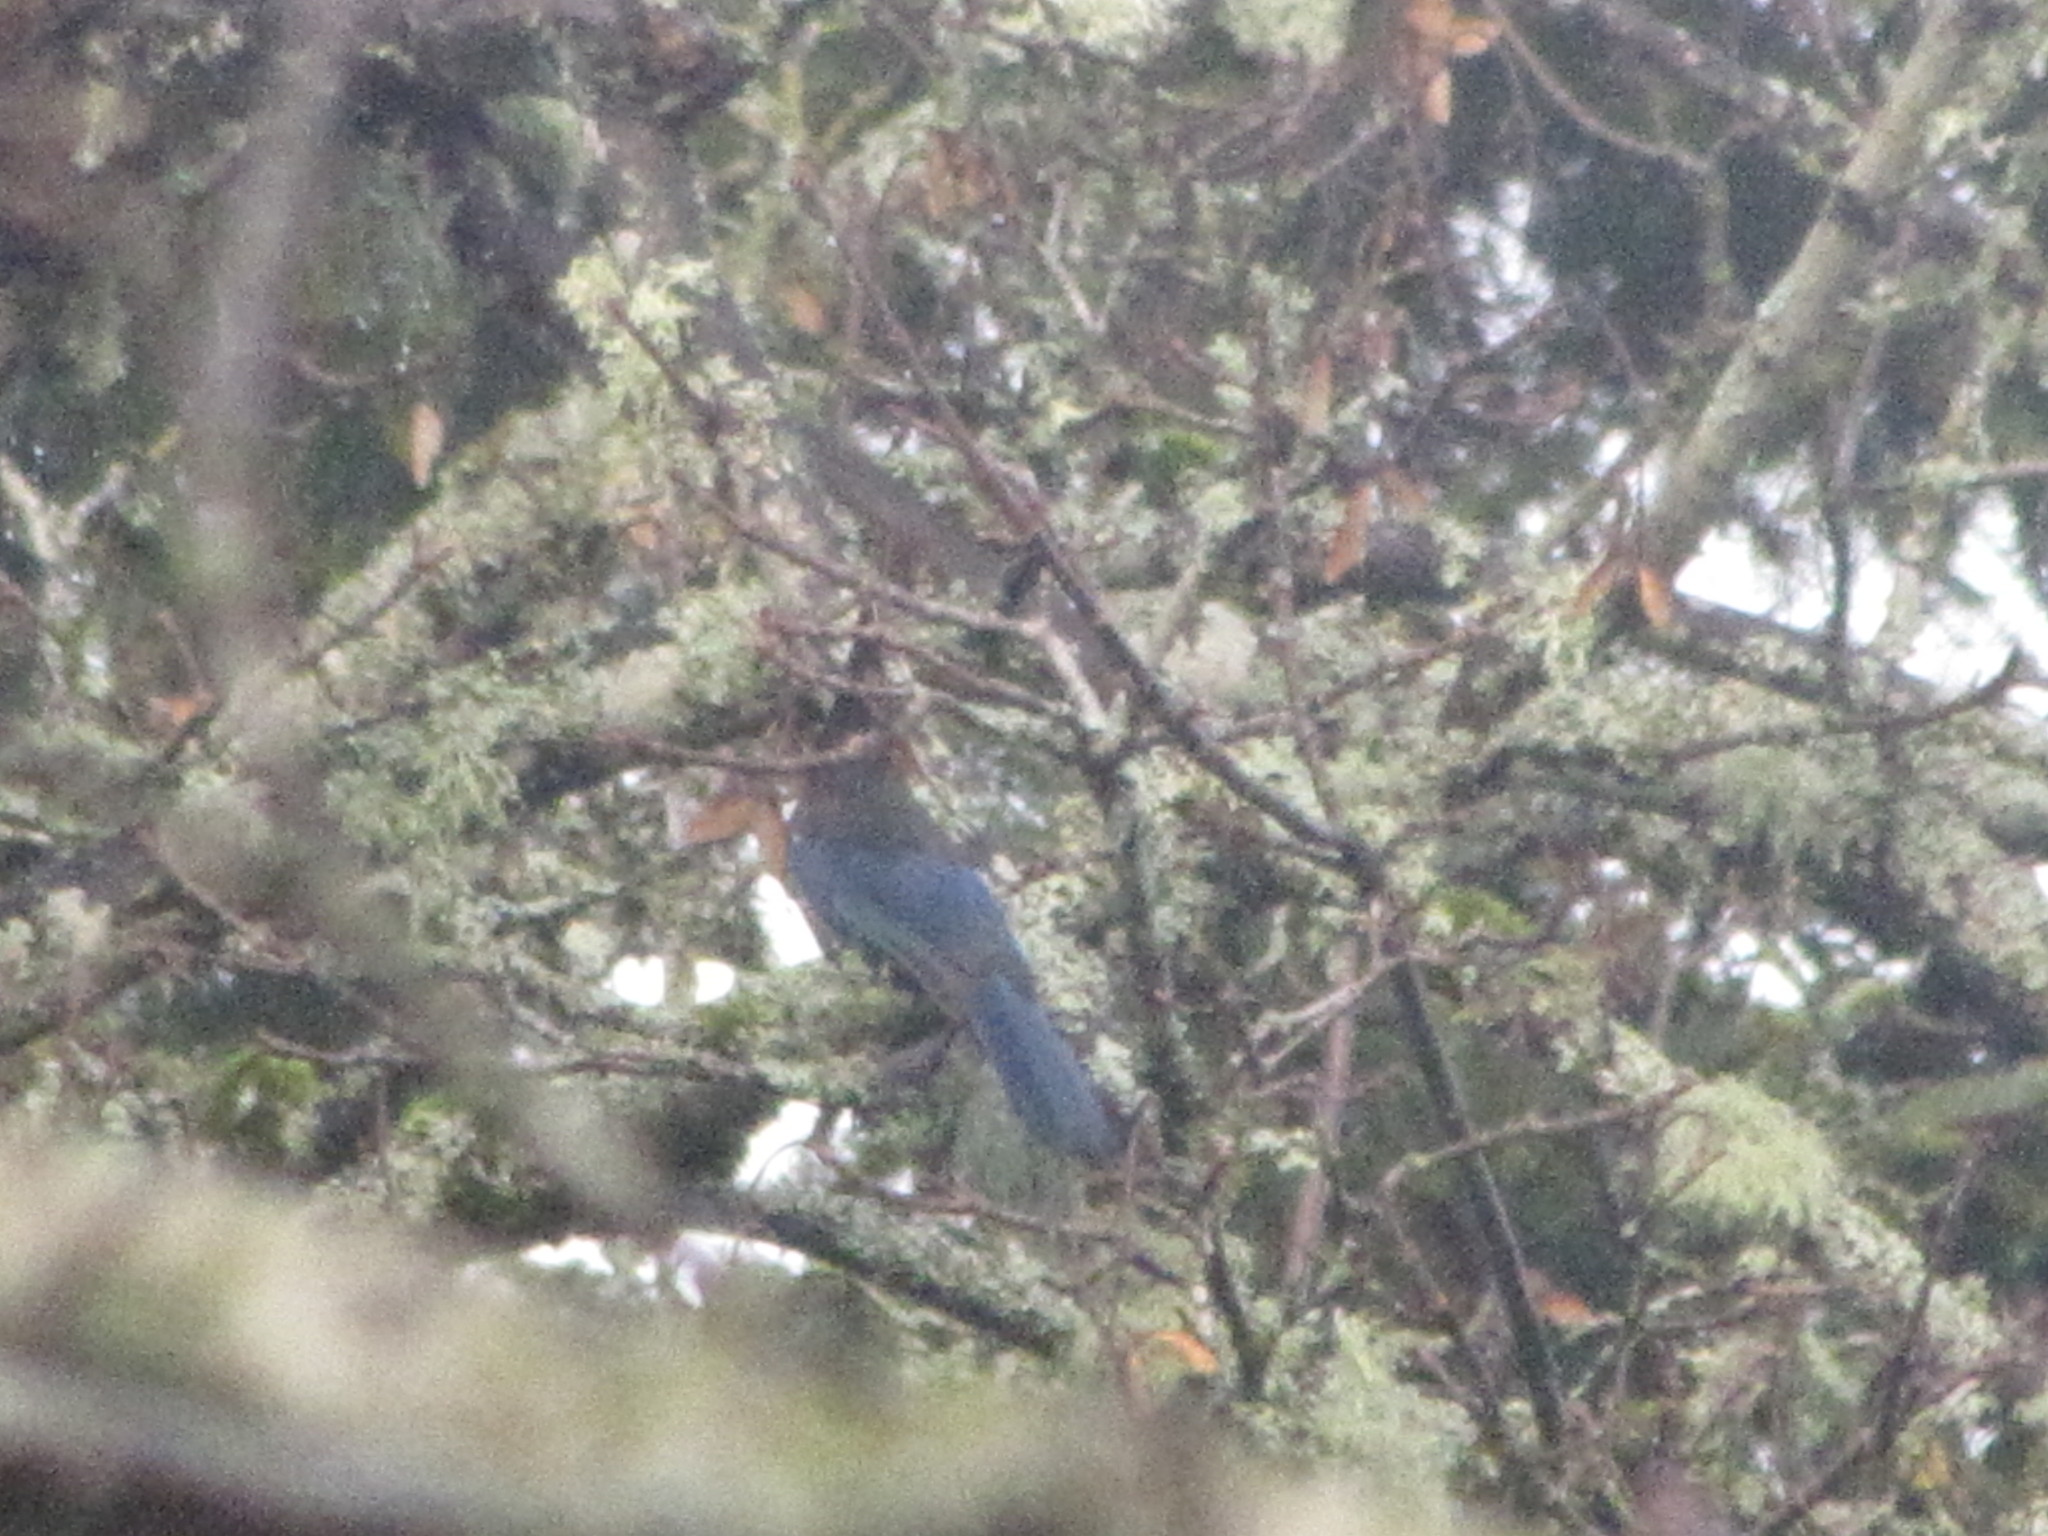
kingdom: Animalia
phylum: Chordata
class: Aves
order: Passeriformes
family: Corvidae
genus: Cyanocitta
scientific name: Cyanocitta stelleri
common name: Steller's jay
